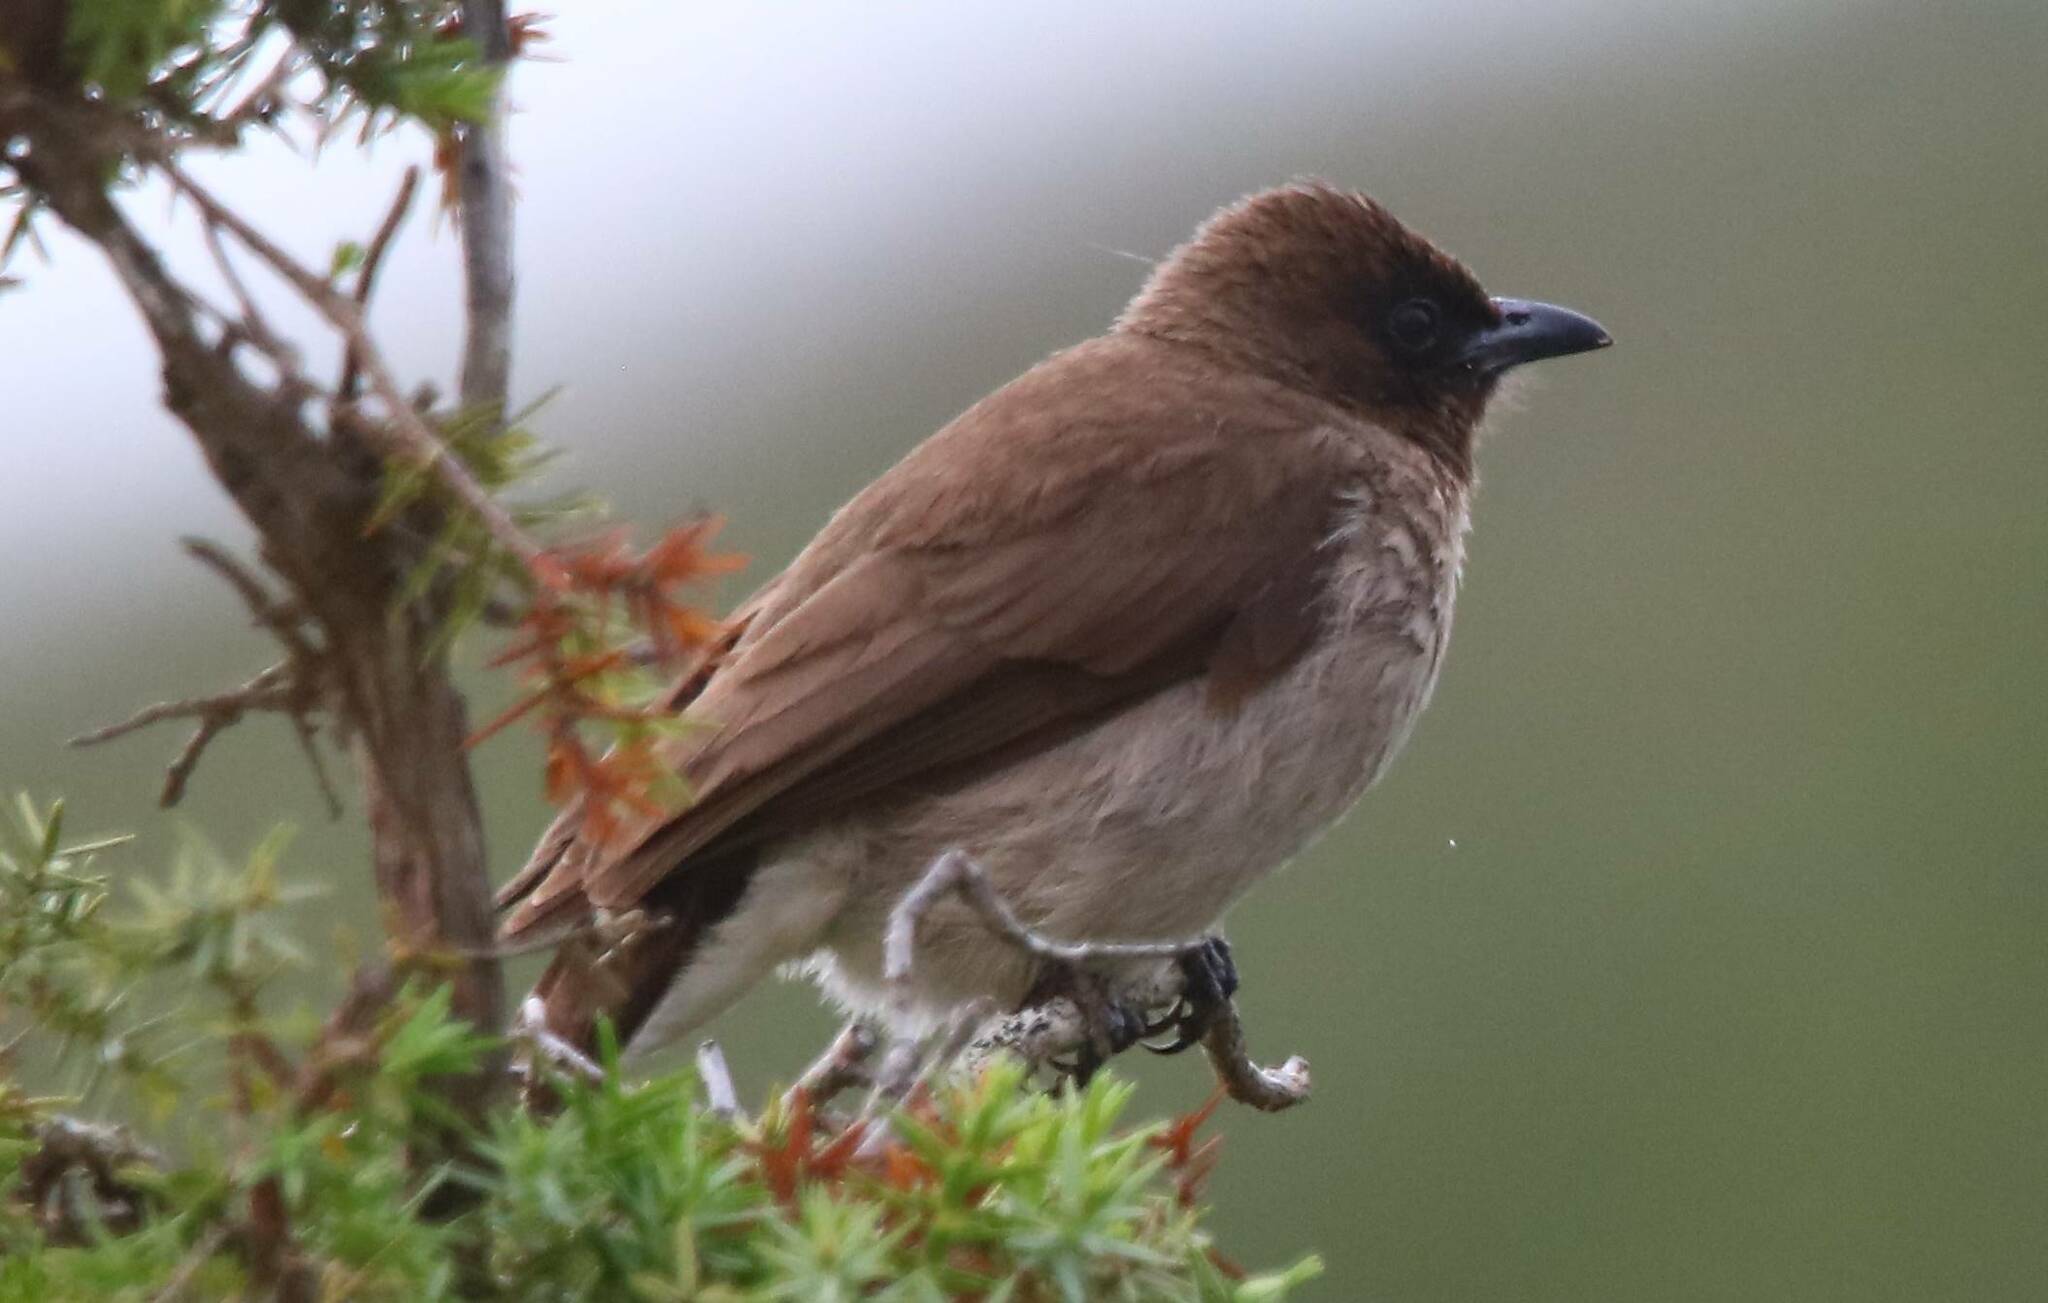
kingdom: Animalia
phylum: Chordata
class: Aves
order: Passeriformes
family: Pycnonotidae
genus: Pycnonotus
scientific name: Pycnonotus barbatus
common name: Common bulbul
